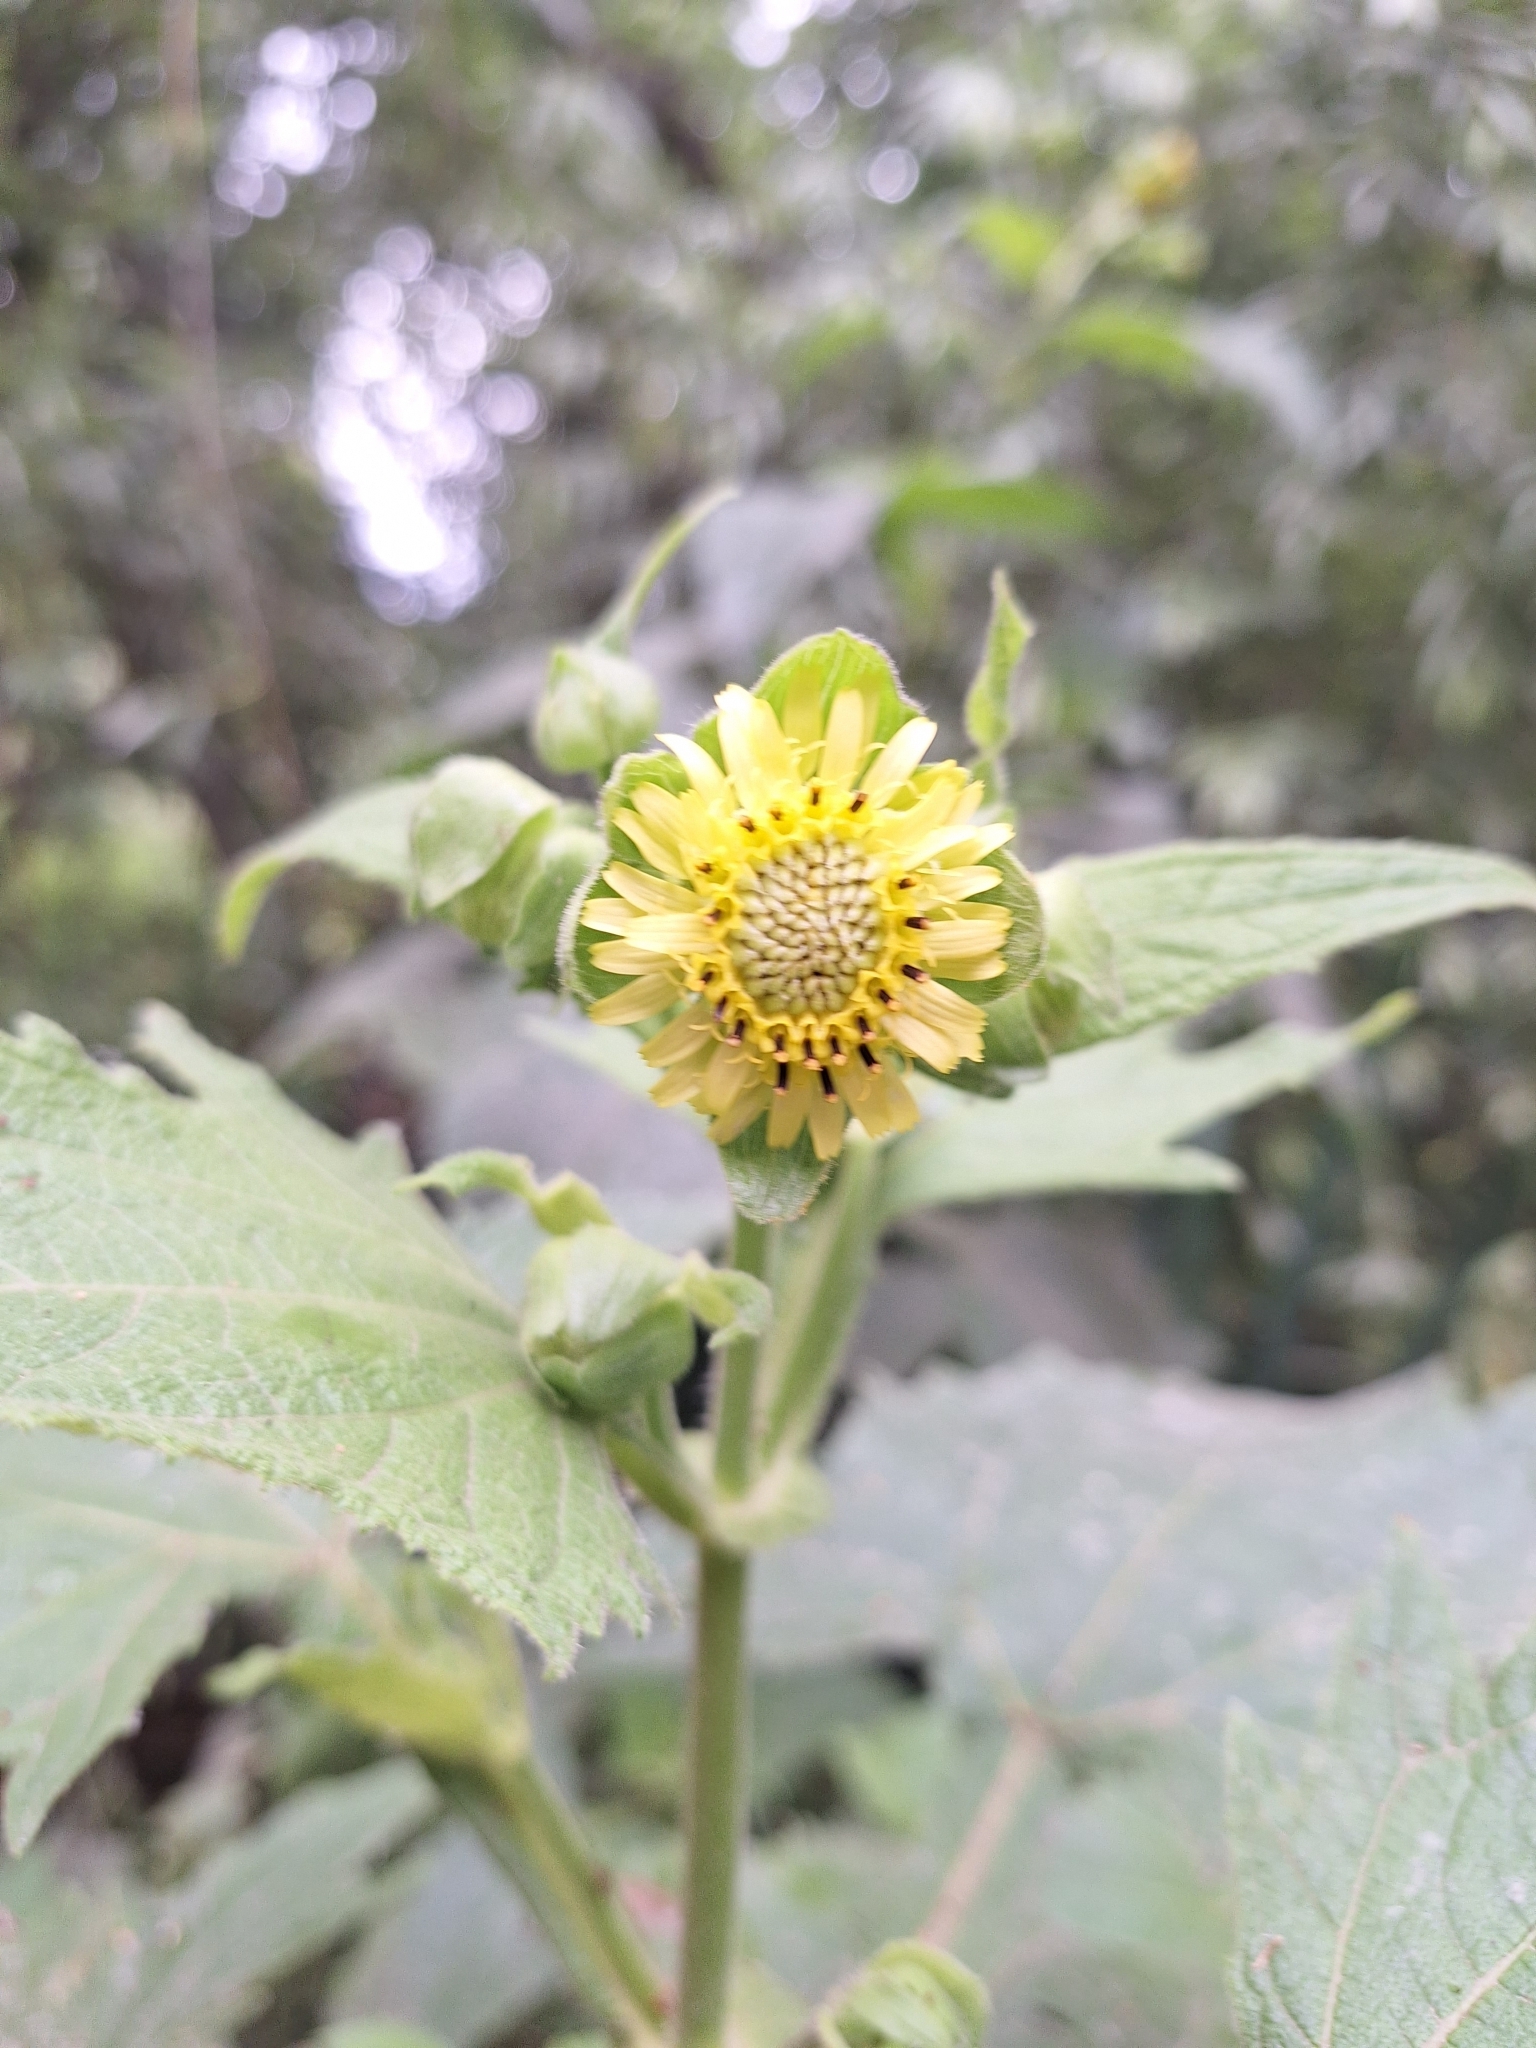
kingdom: Plantae
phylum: Tracheophyta
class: Magnoliopsida
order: Asterales
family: Asteraceae
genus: Smallanthus
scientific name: Smallanthus connatus
